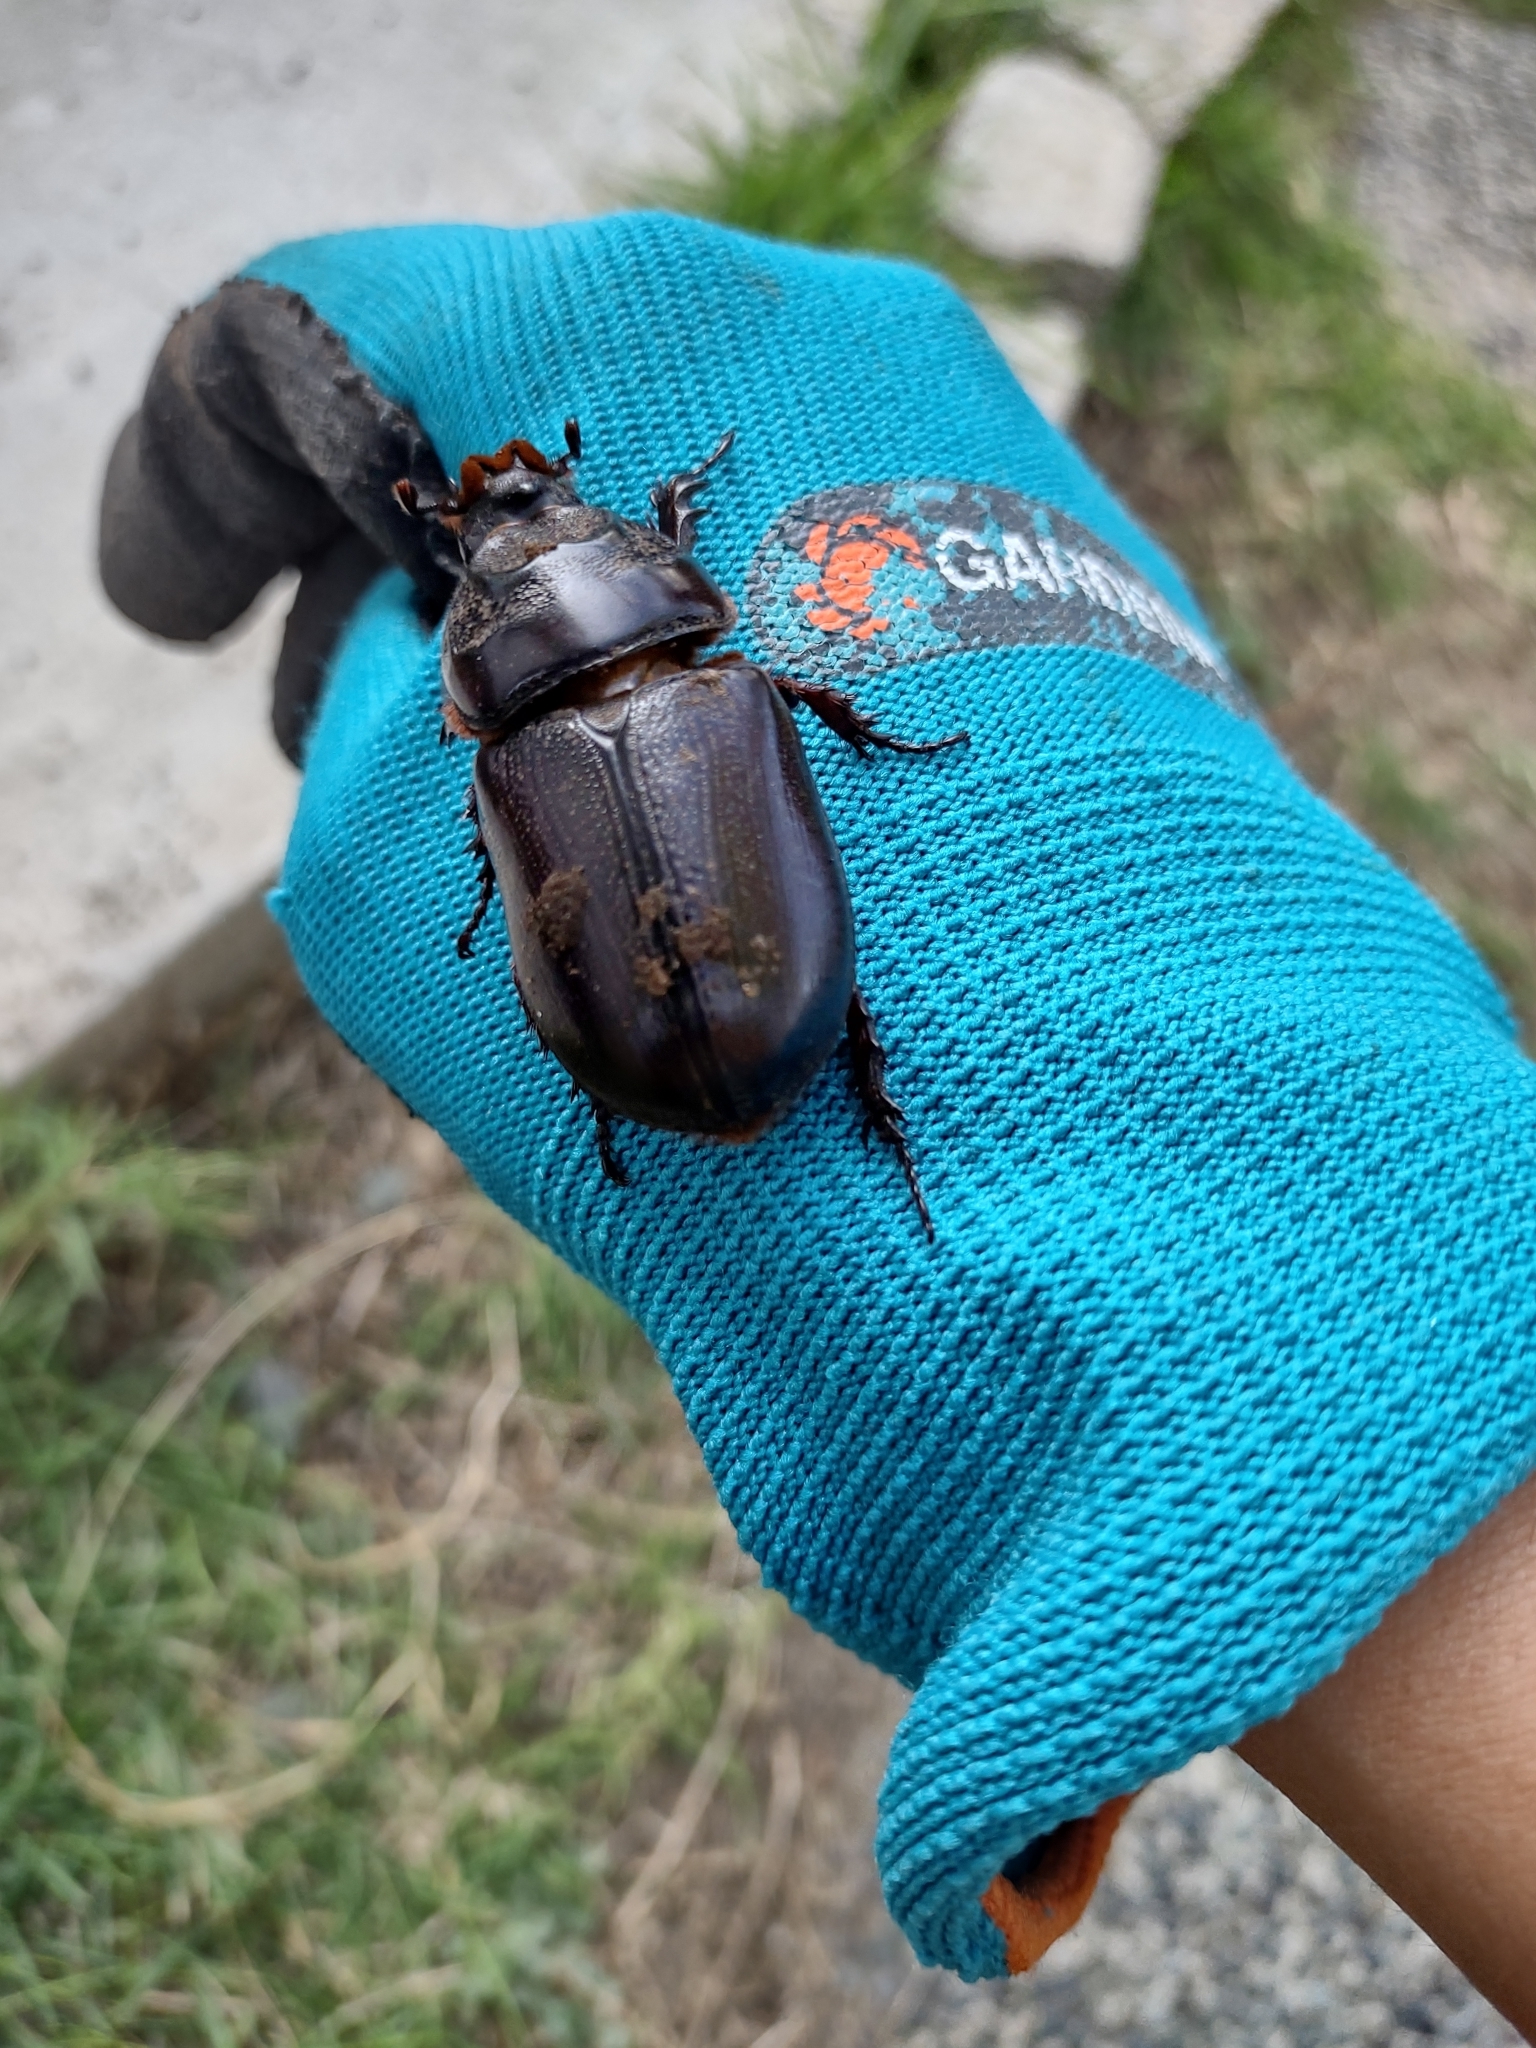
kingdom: Animalia
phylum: Arthropoda
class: Insecta
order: Coleoptera
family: Scarabaeidae
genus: Oryctes
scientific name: Oryctes rhinoceros
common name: Coconut rhinoceros beetle
